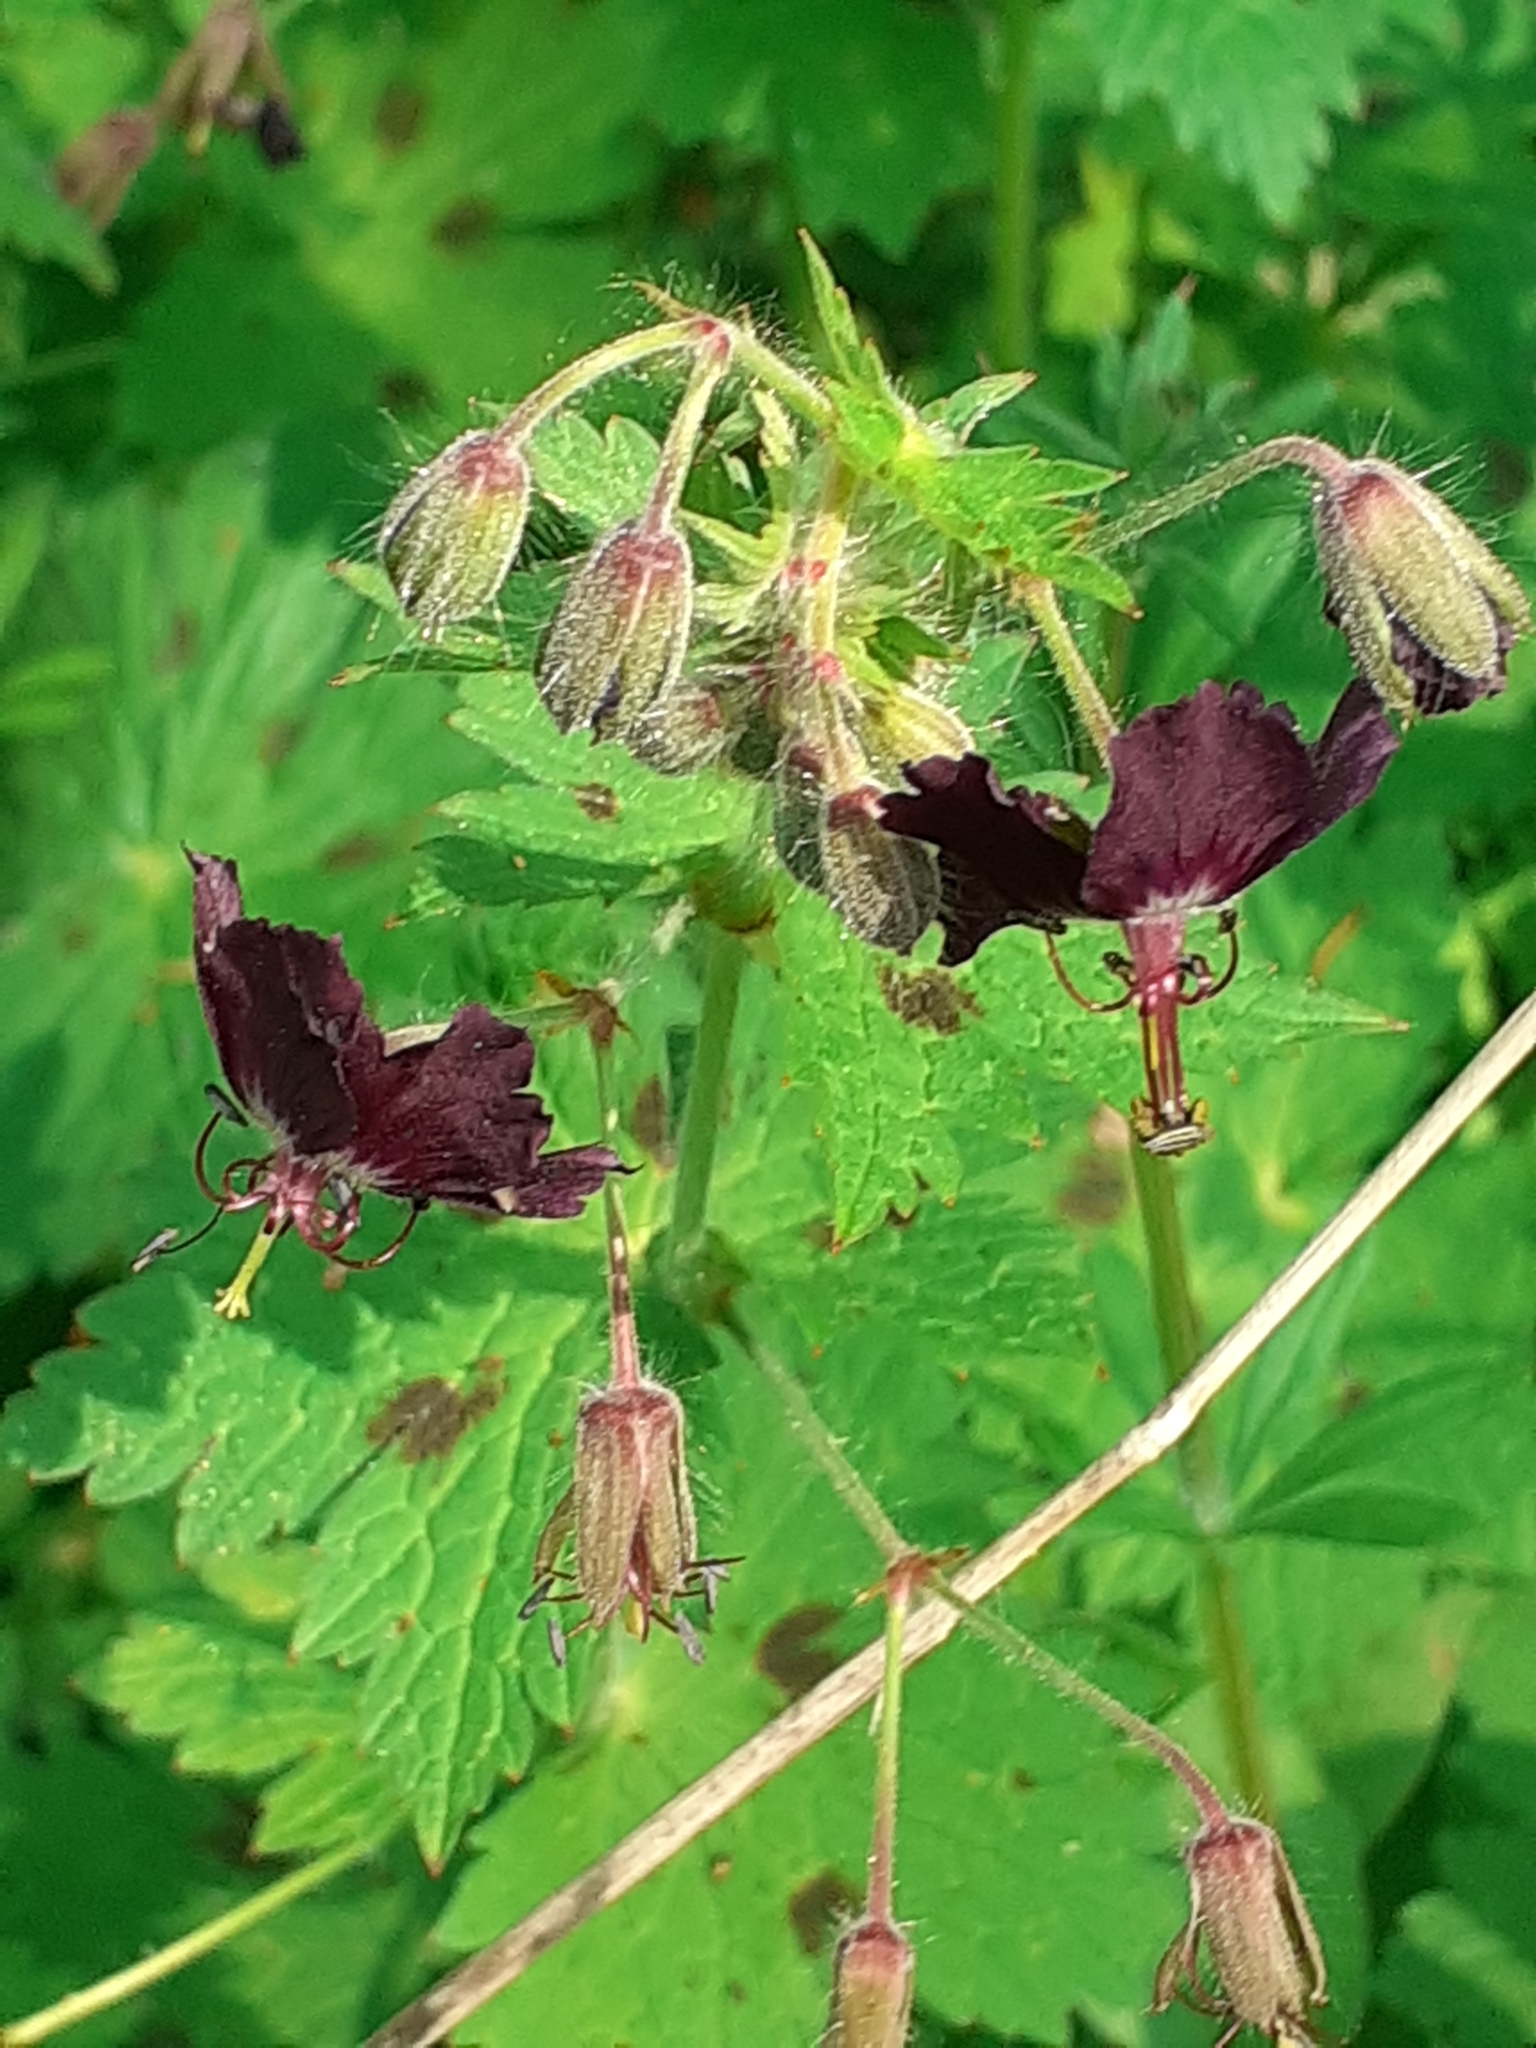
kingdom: Plantae
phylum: Tracheophyta
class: Magnoliopsida
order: Geraniales
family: Geraniaceae
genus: Geranium
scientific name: Geranium phaeum
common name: Dusky crane's-bill
